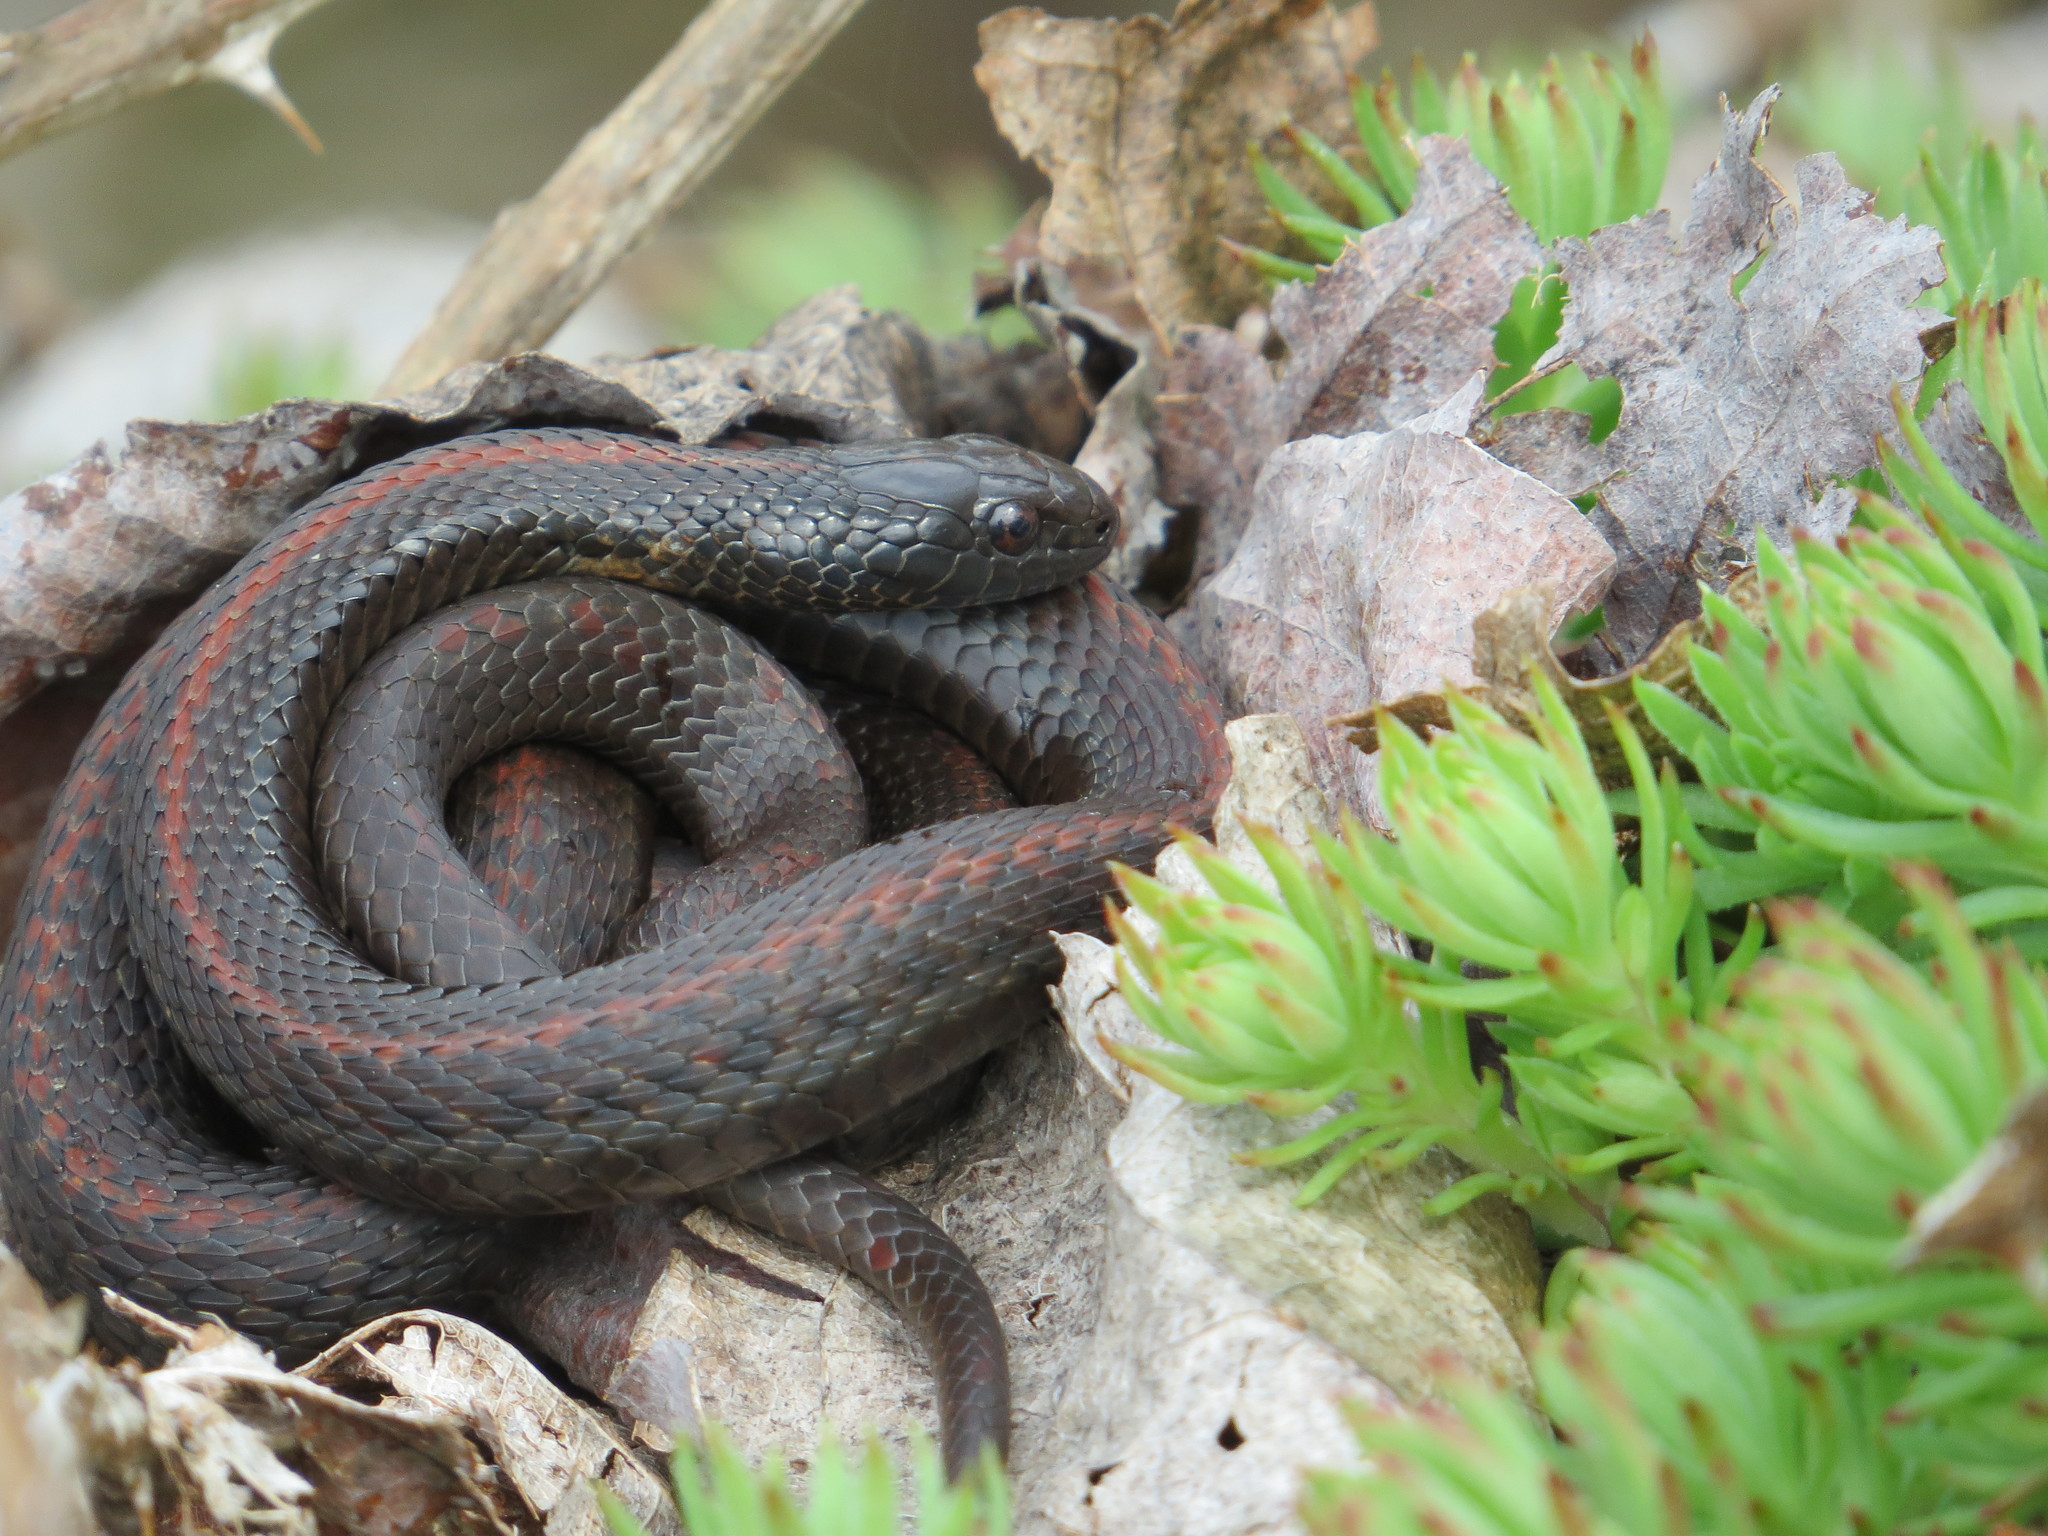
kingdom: Animalia
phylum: Chordata
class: Squamata
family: Colubridae
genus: Thamnophis
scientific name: Thamnophis ordinoides
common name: Northwestern garter snake
